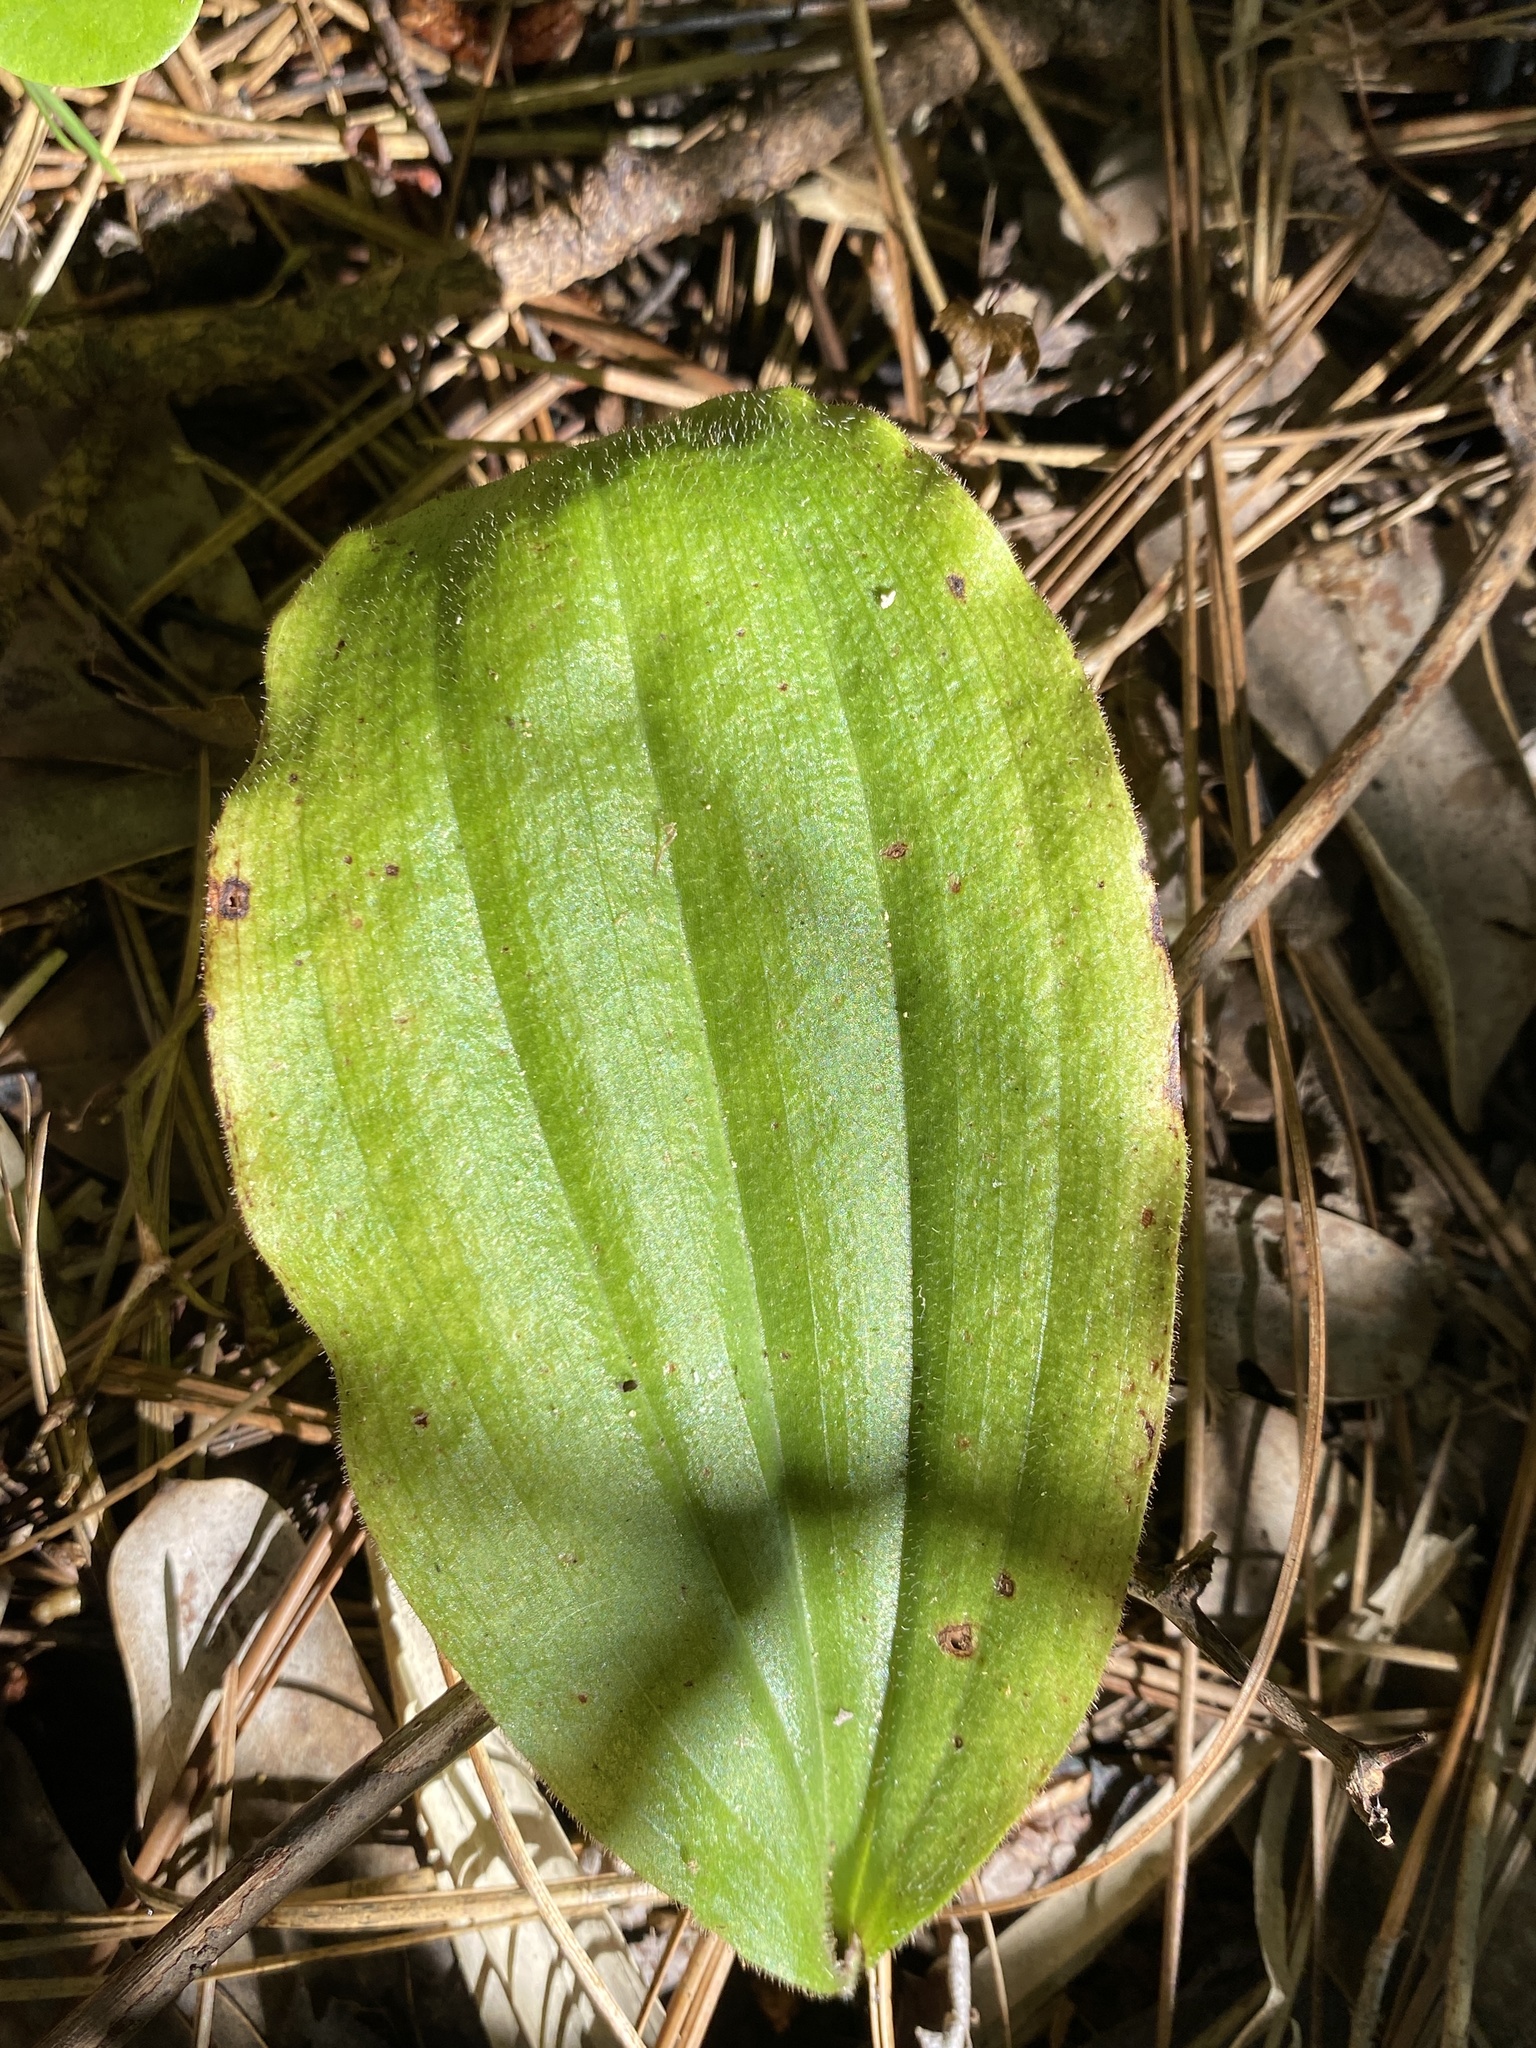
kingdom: Plantae
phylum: Tracheophyta
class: Liliopsida
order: Asparagales
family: Orchidaceae
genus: Cypripedium
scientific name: Cypripedium acaule
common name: Pink lady's-slipper
